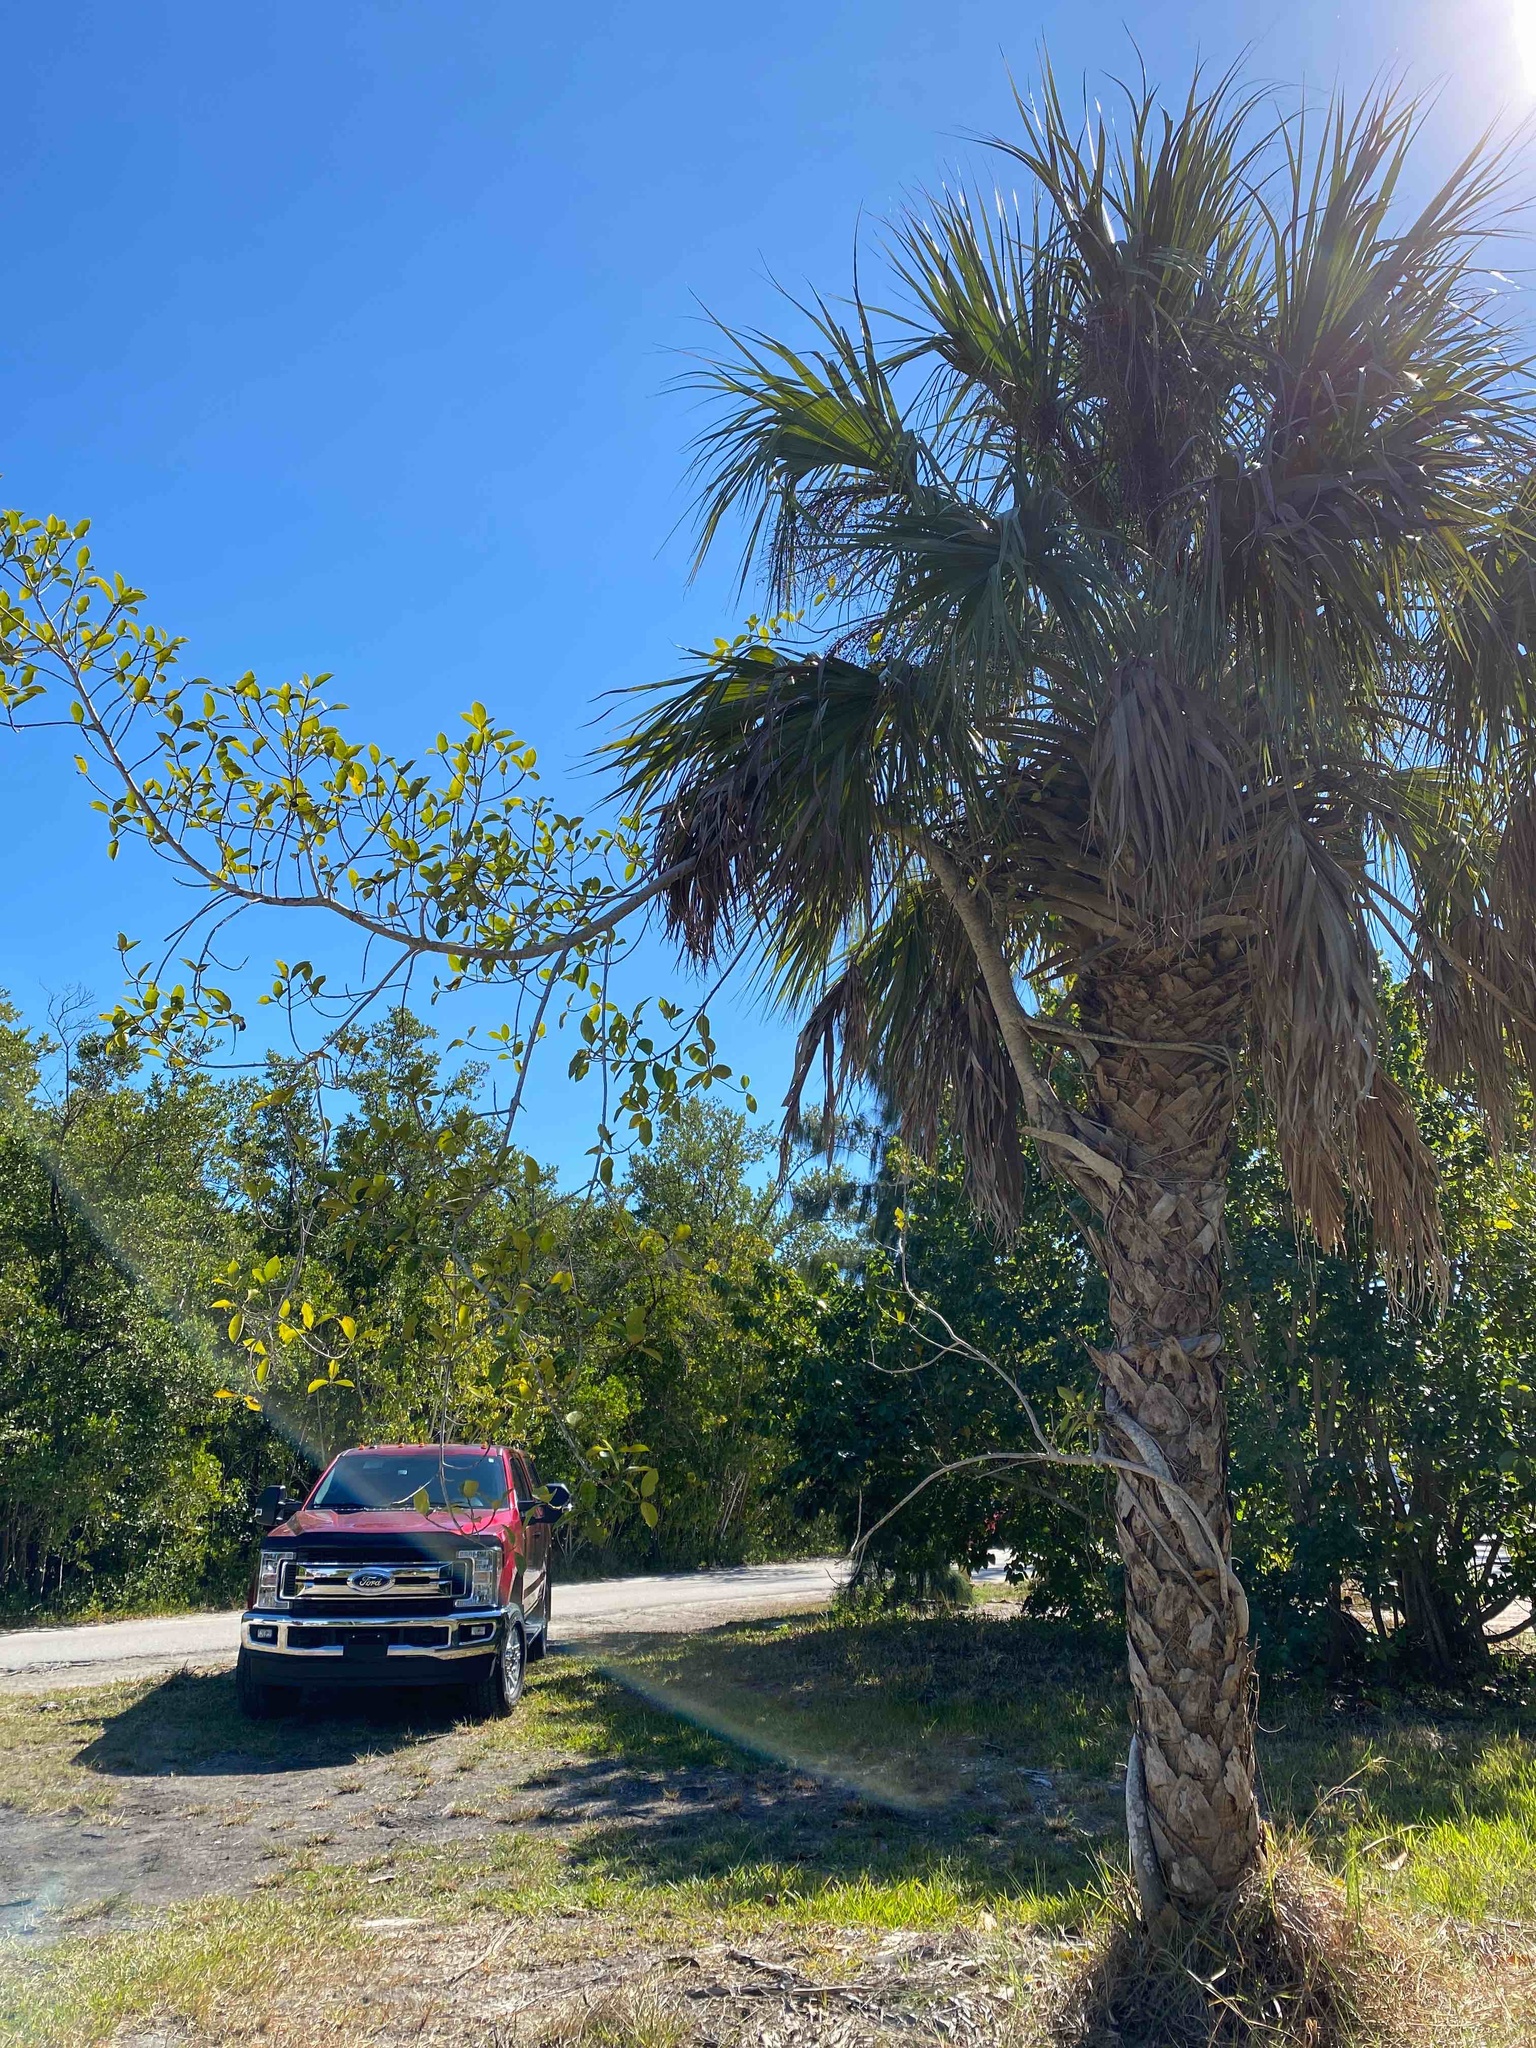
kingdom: Plantae
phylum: Tracheophyta
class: Magnoliopsida
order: Rosales
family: Moraceae
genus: Ficus
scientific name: Ficus aurea
